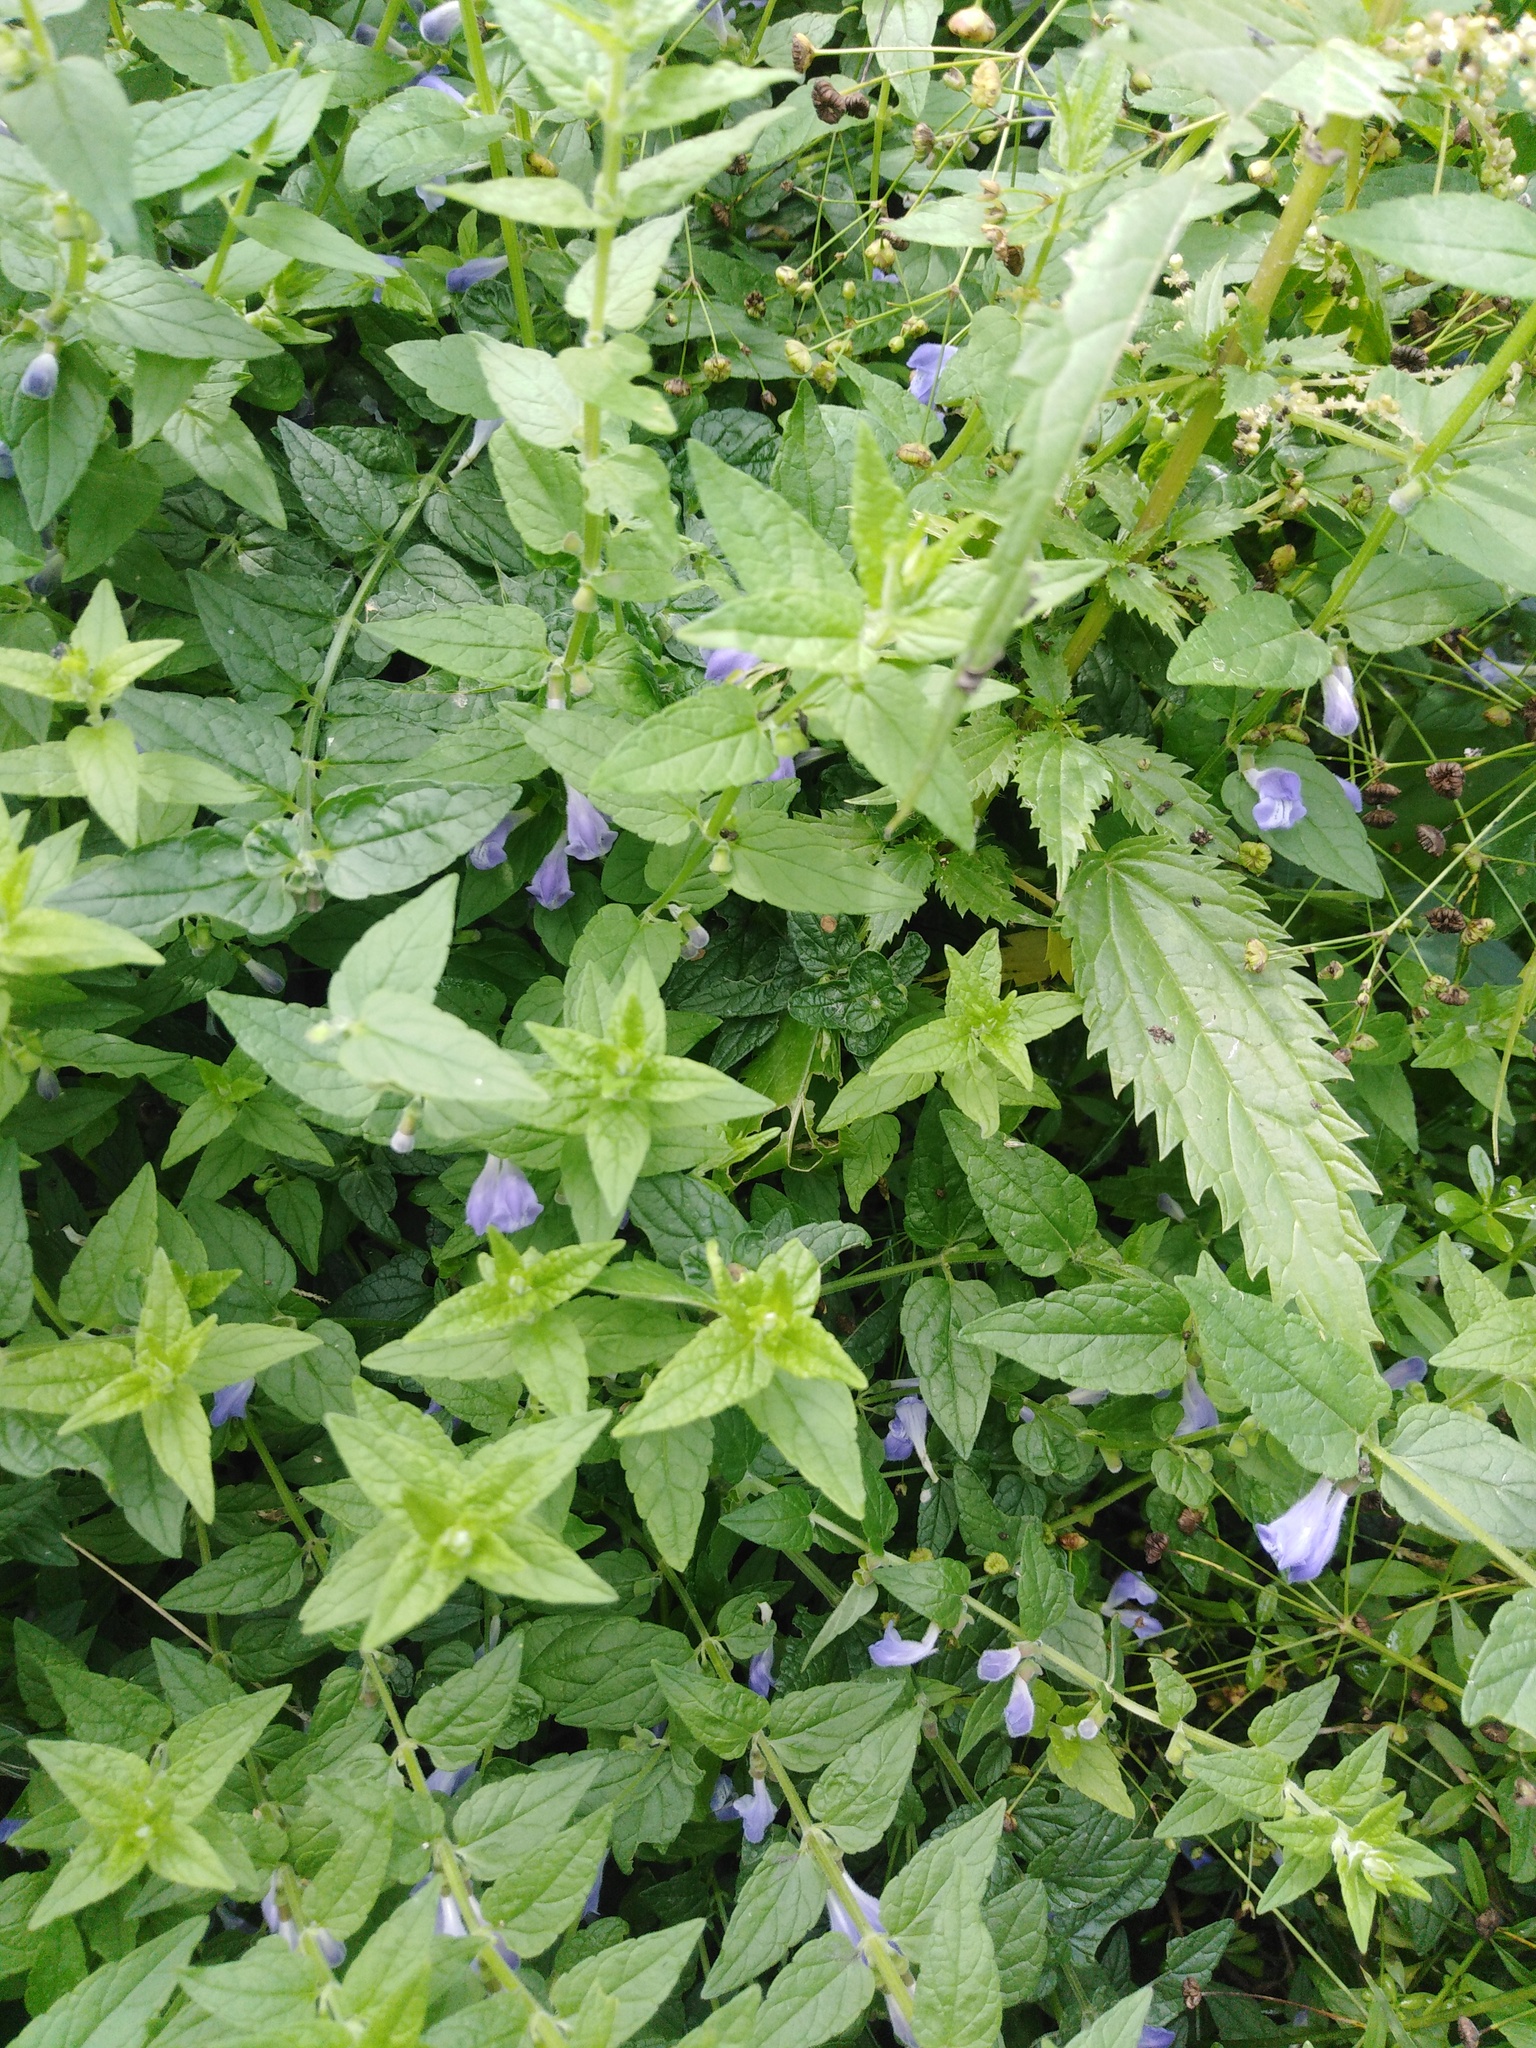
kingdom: Plantae
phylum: Tracheophyta
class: Magnoliopsida
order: Lamiales
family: Lamiaceae
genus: Scutellaria
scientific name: Scutellaria galericulata
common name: Skullcap
